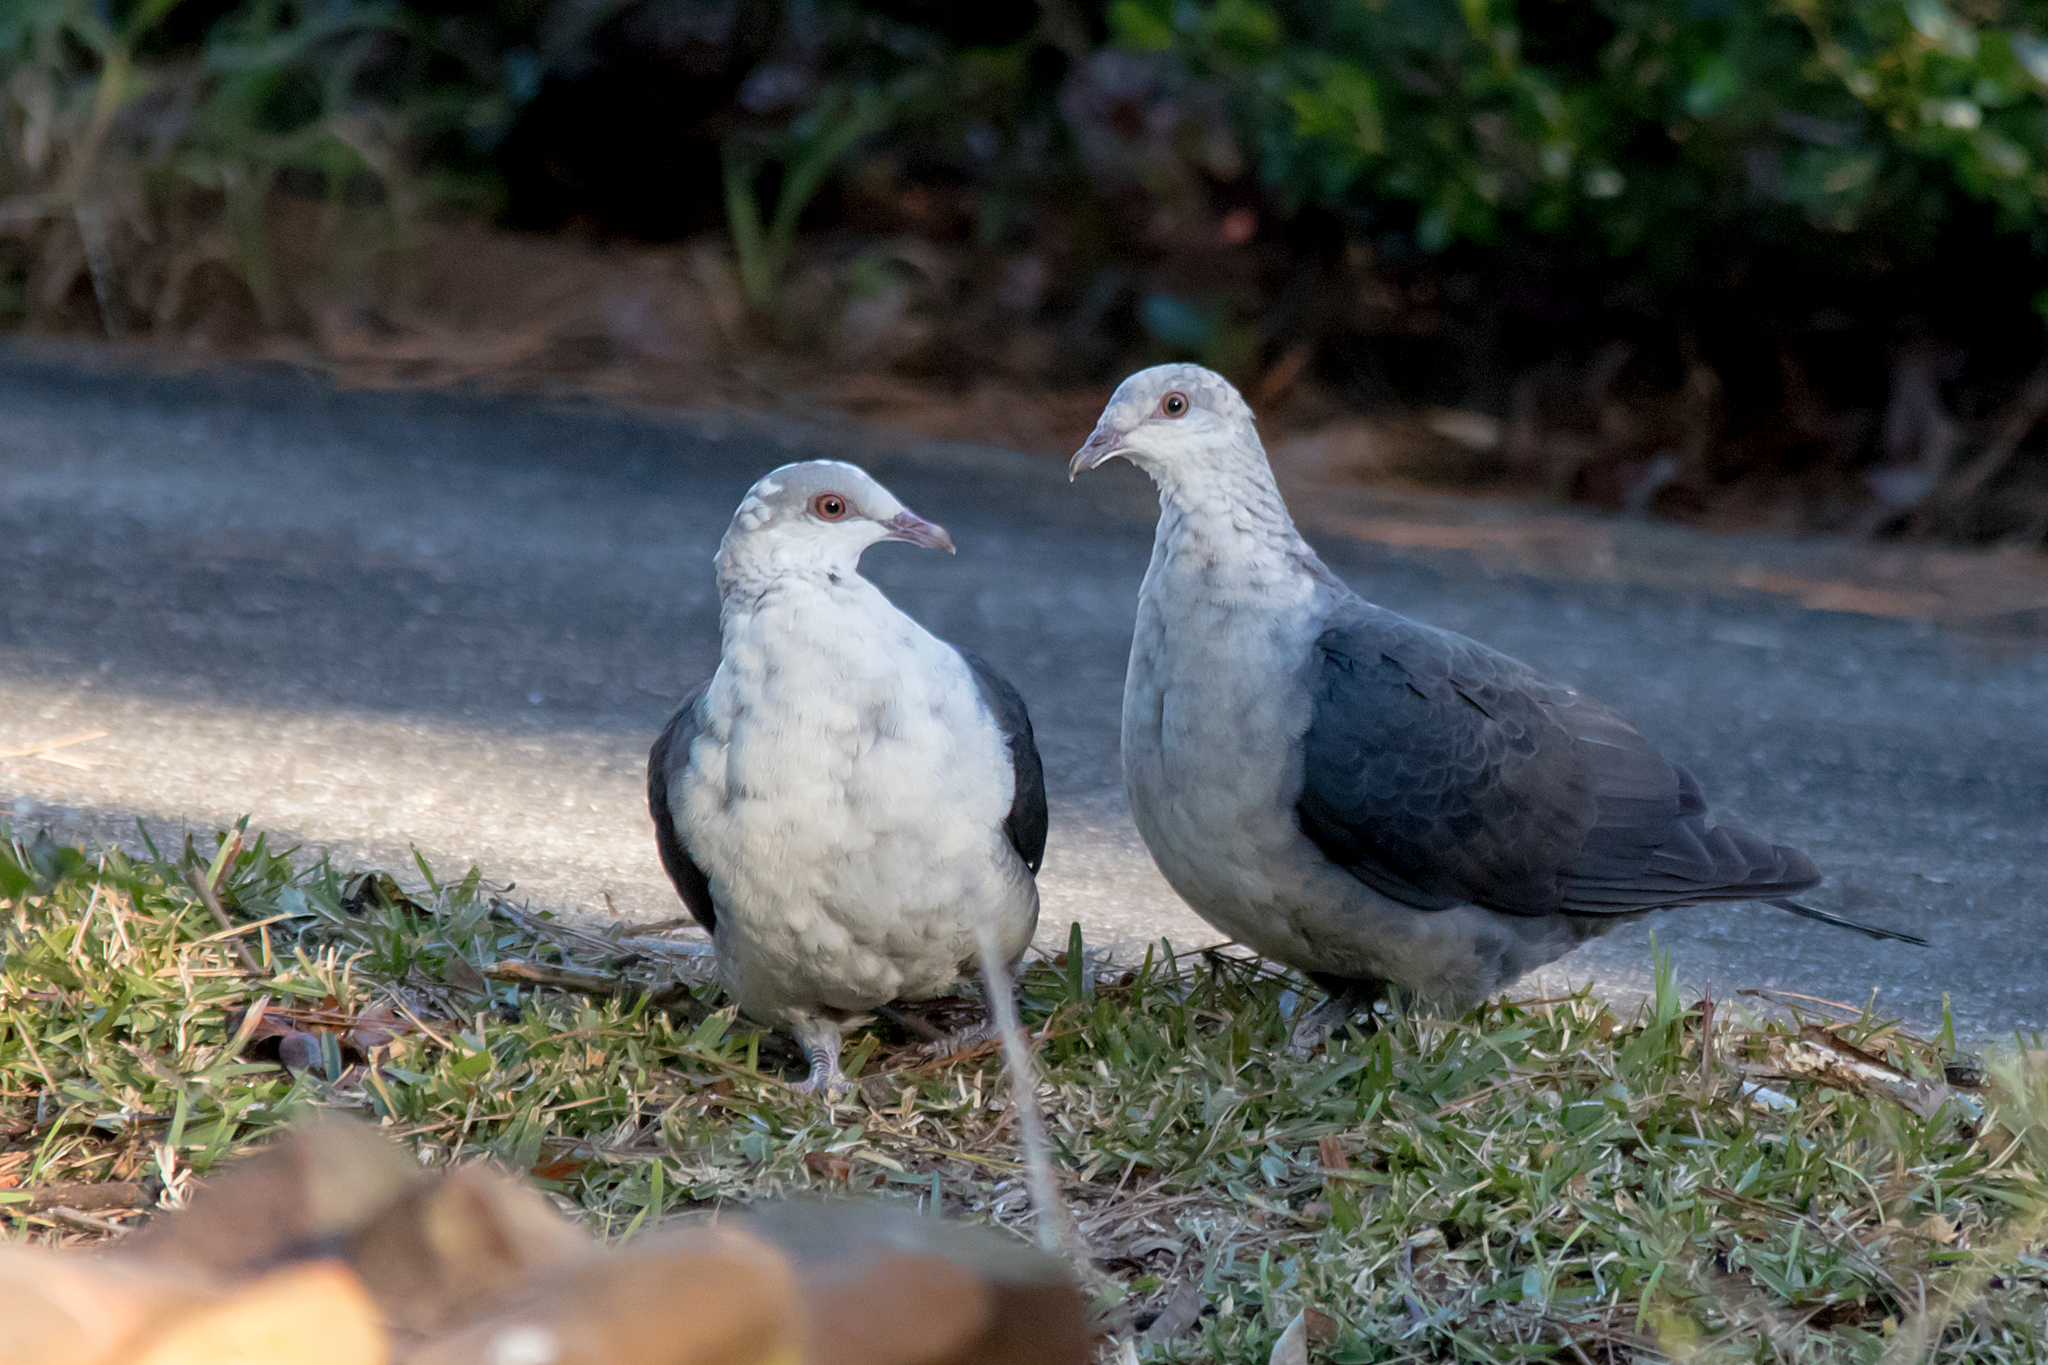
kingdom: Animalia
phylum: Chordata
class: Aves
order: Columbiformes
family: Columbidae
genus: Columba
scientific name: Columba leucomela
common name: White-headed pigeon
